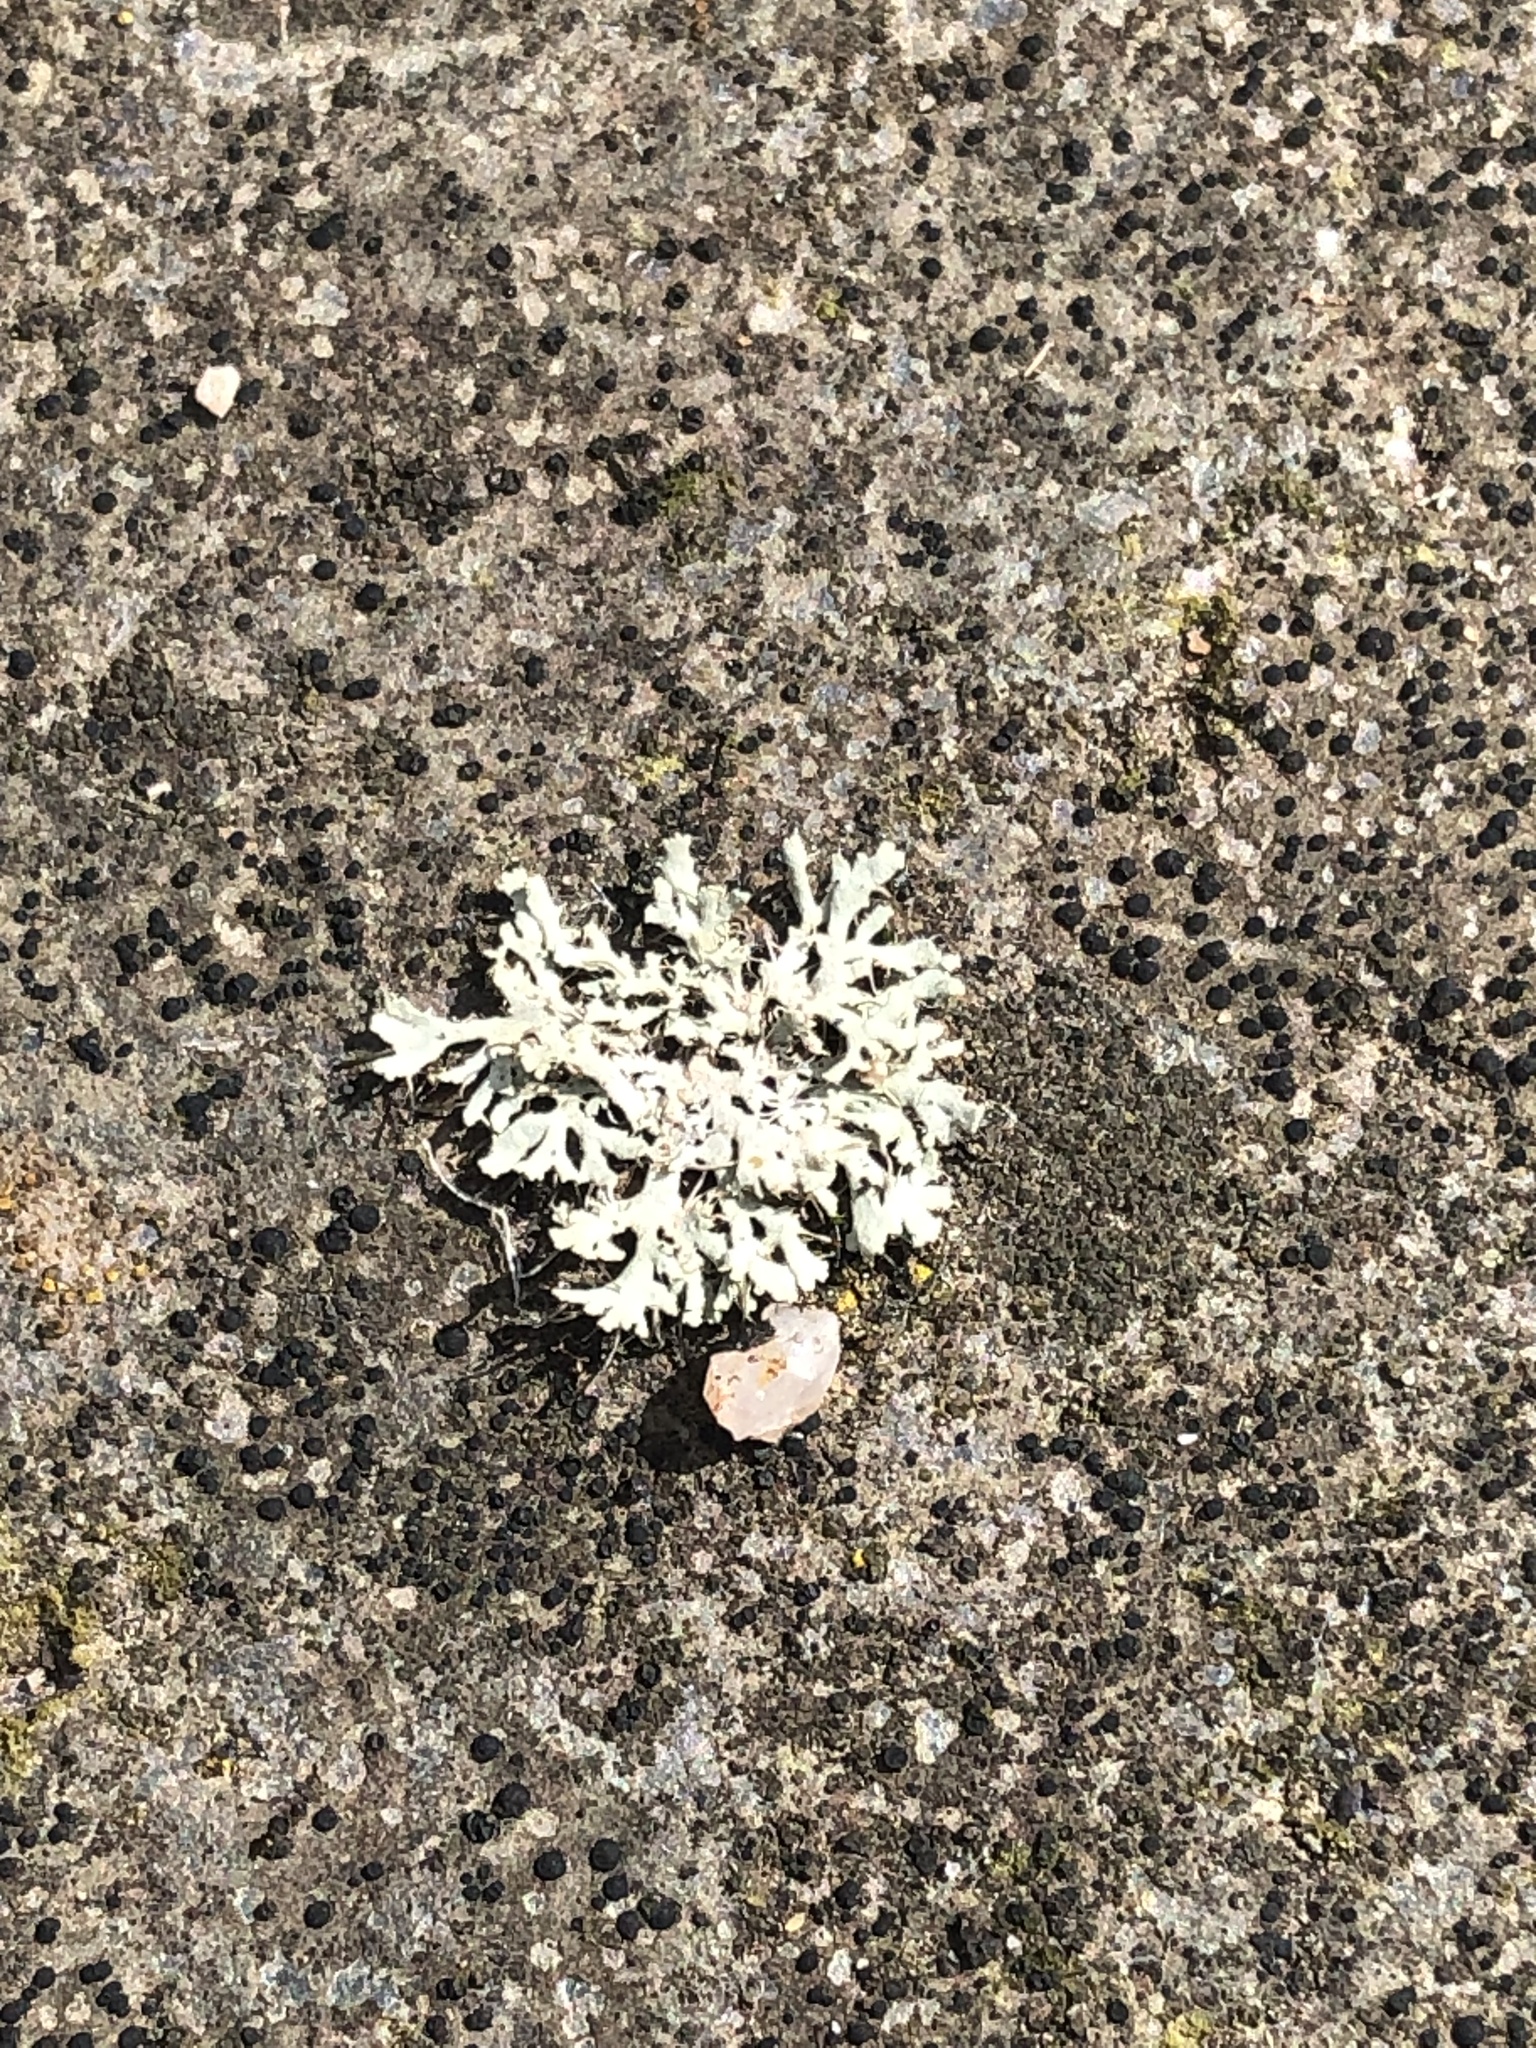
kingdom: Fungi
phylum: Ascomycota
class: Lecanoromycetes
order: Caliciales
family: Physciaceae
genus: Physcia
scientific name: Physcia adscendens
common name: Hooded rosette lichen
